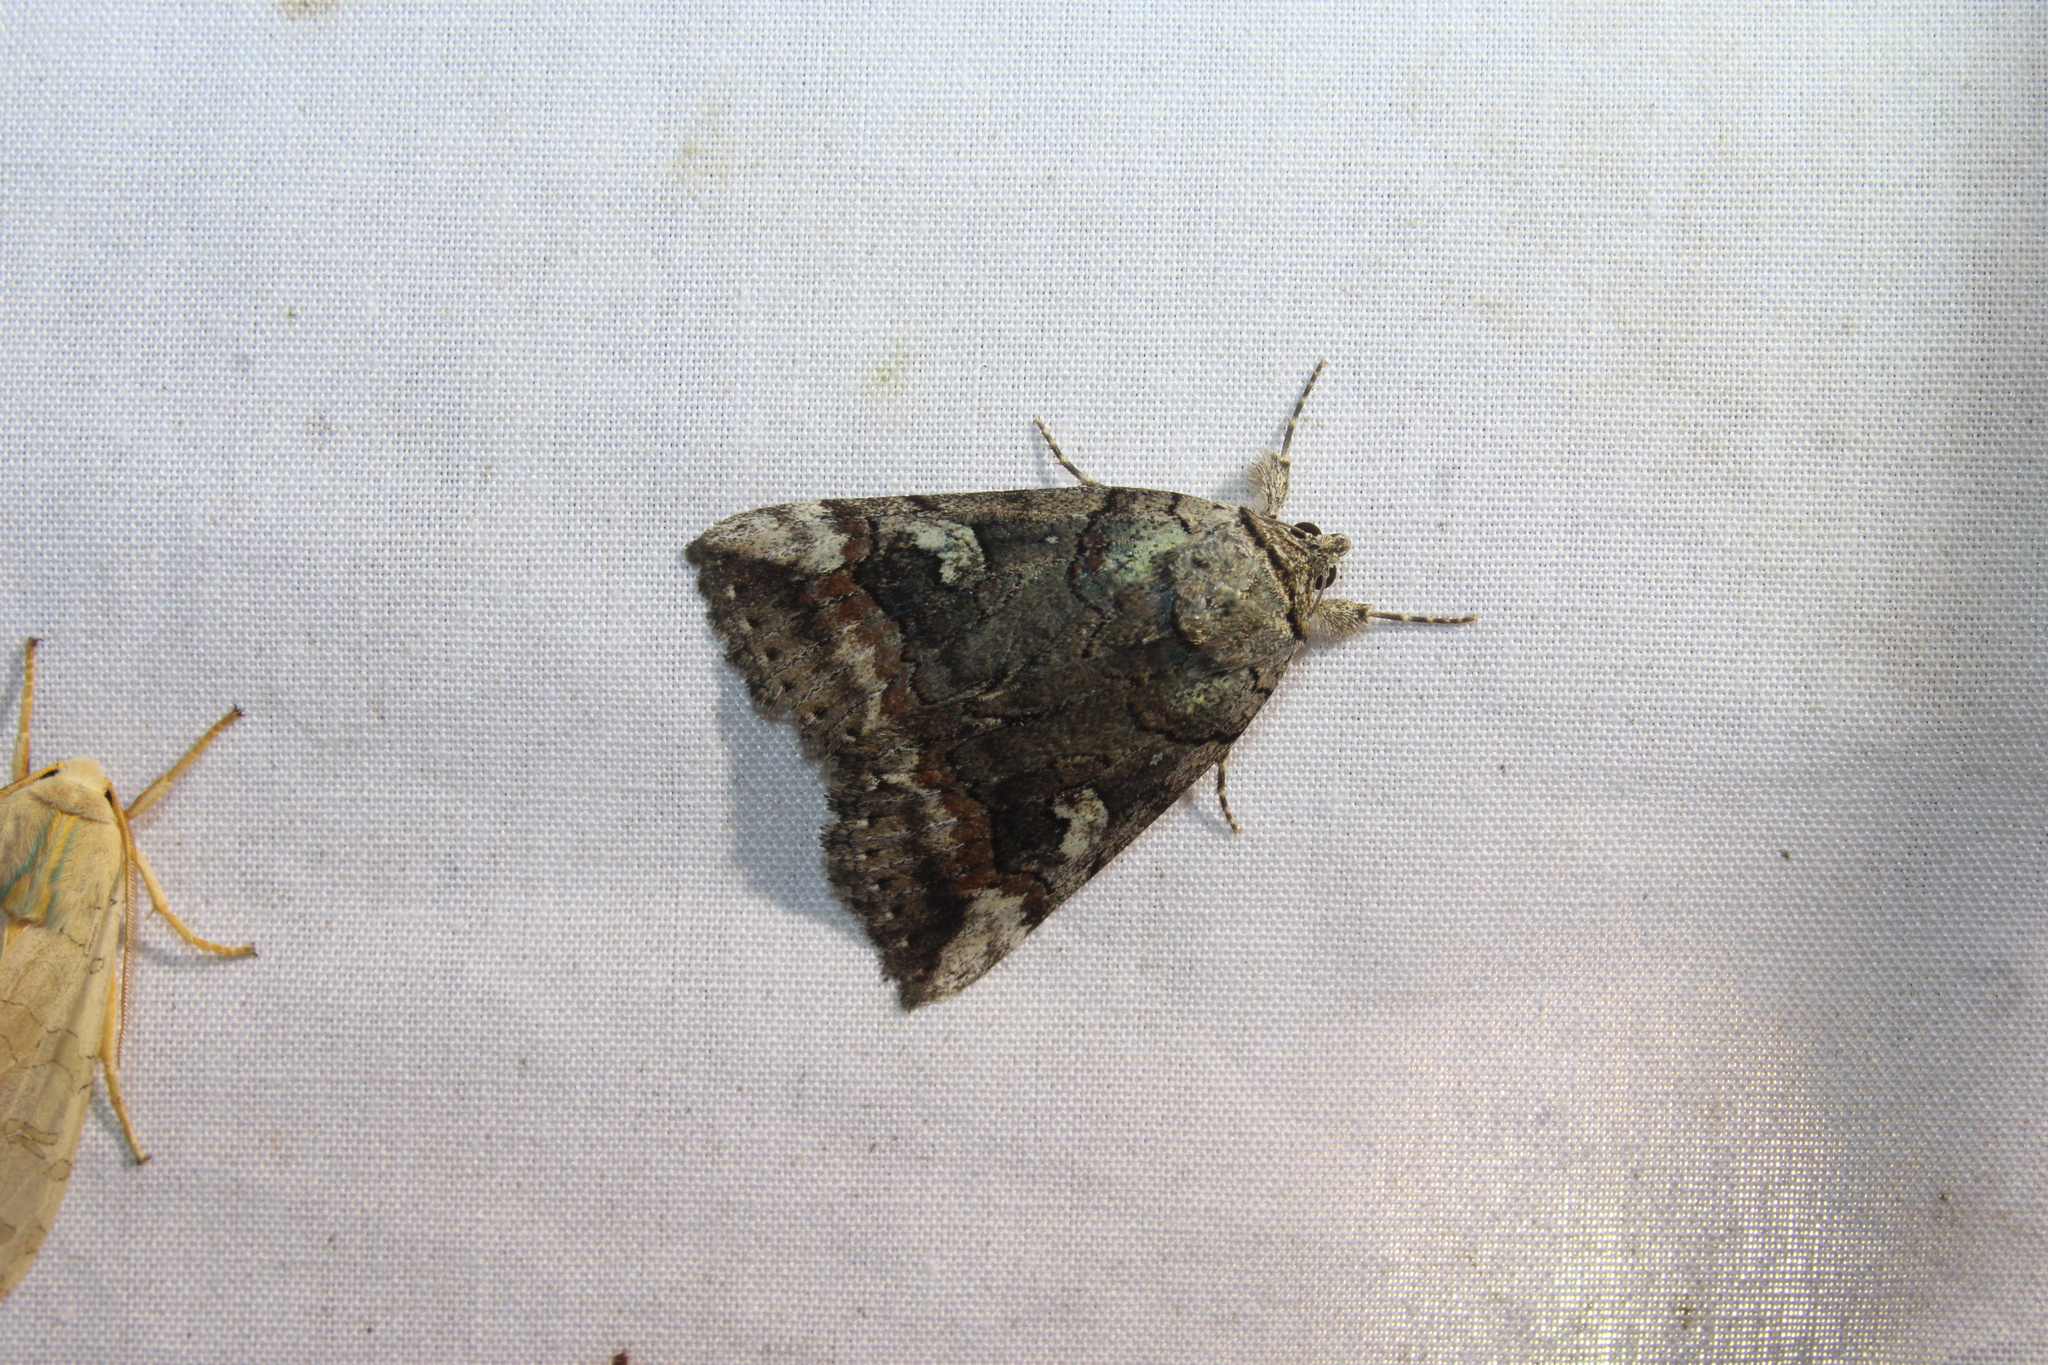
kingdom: Animalia
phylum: Arthropoda
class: Insecta
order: Lepidoptera
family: Erebidae
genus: Catocala
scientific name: Catocala similis
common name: Similar underwing
